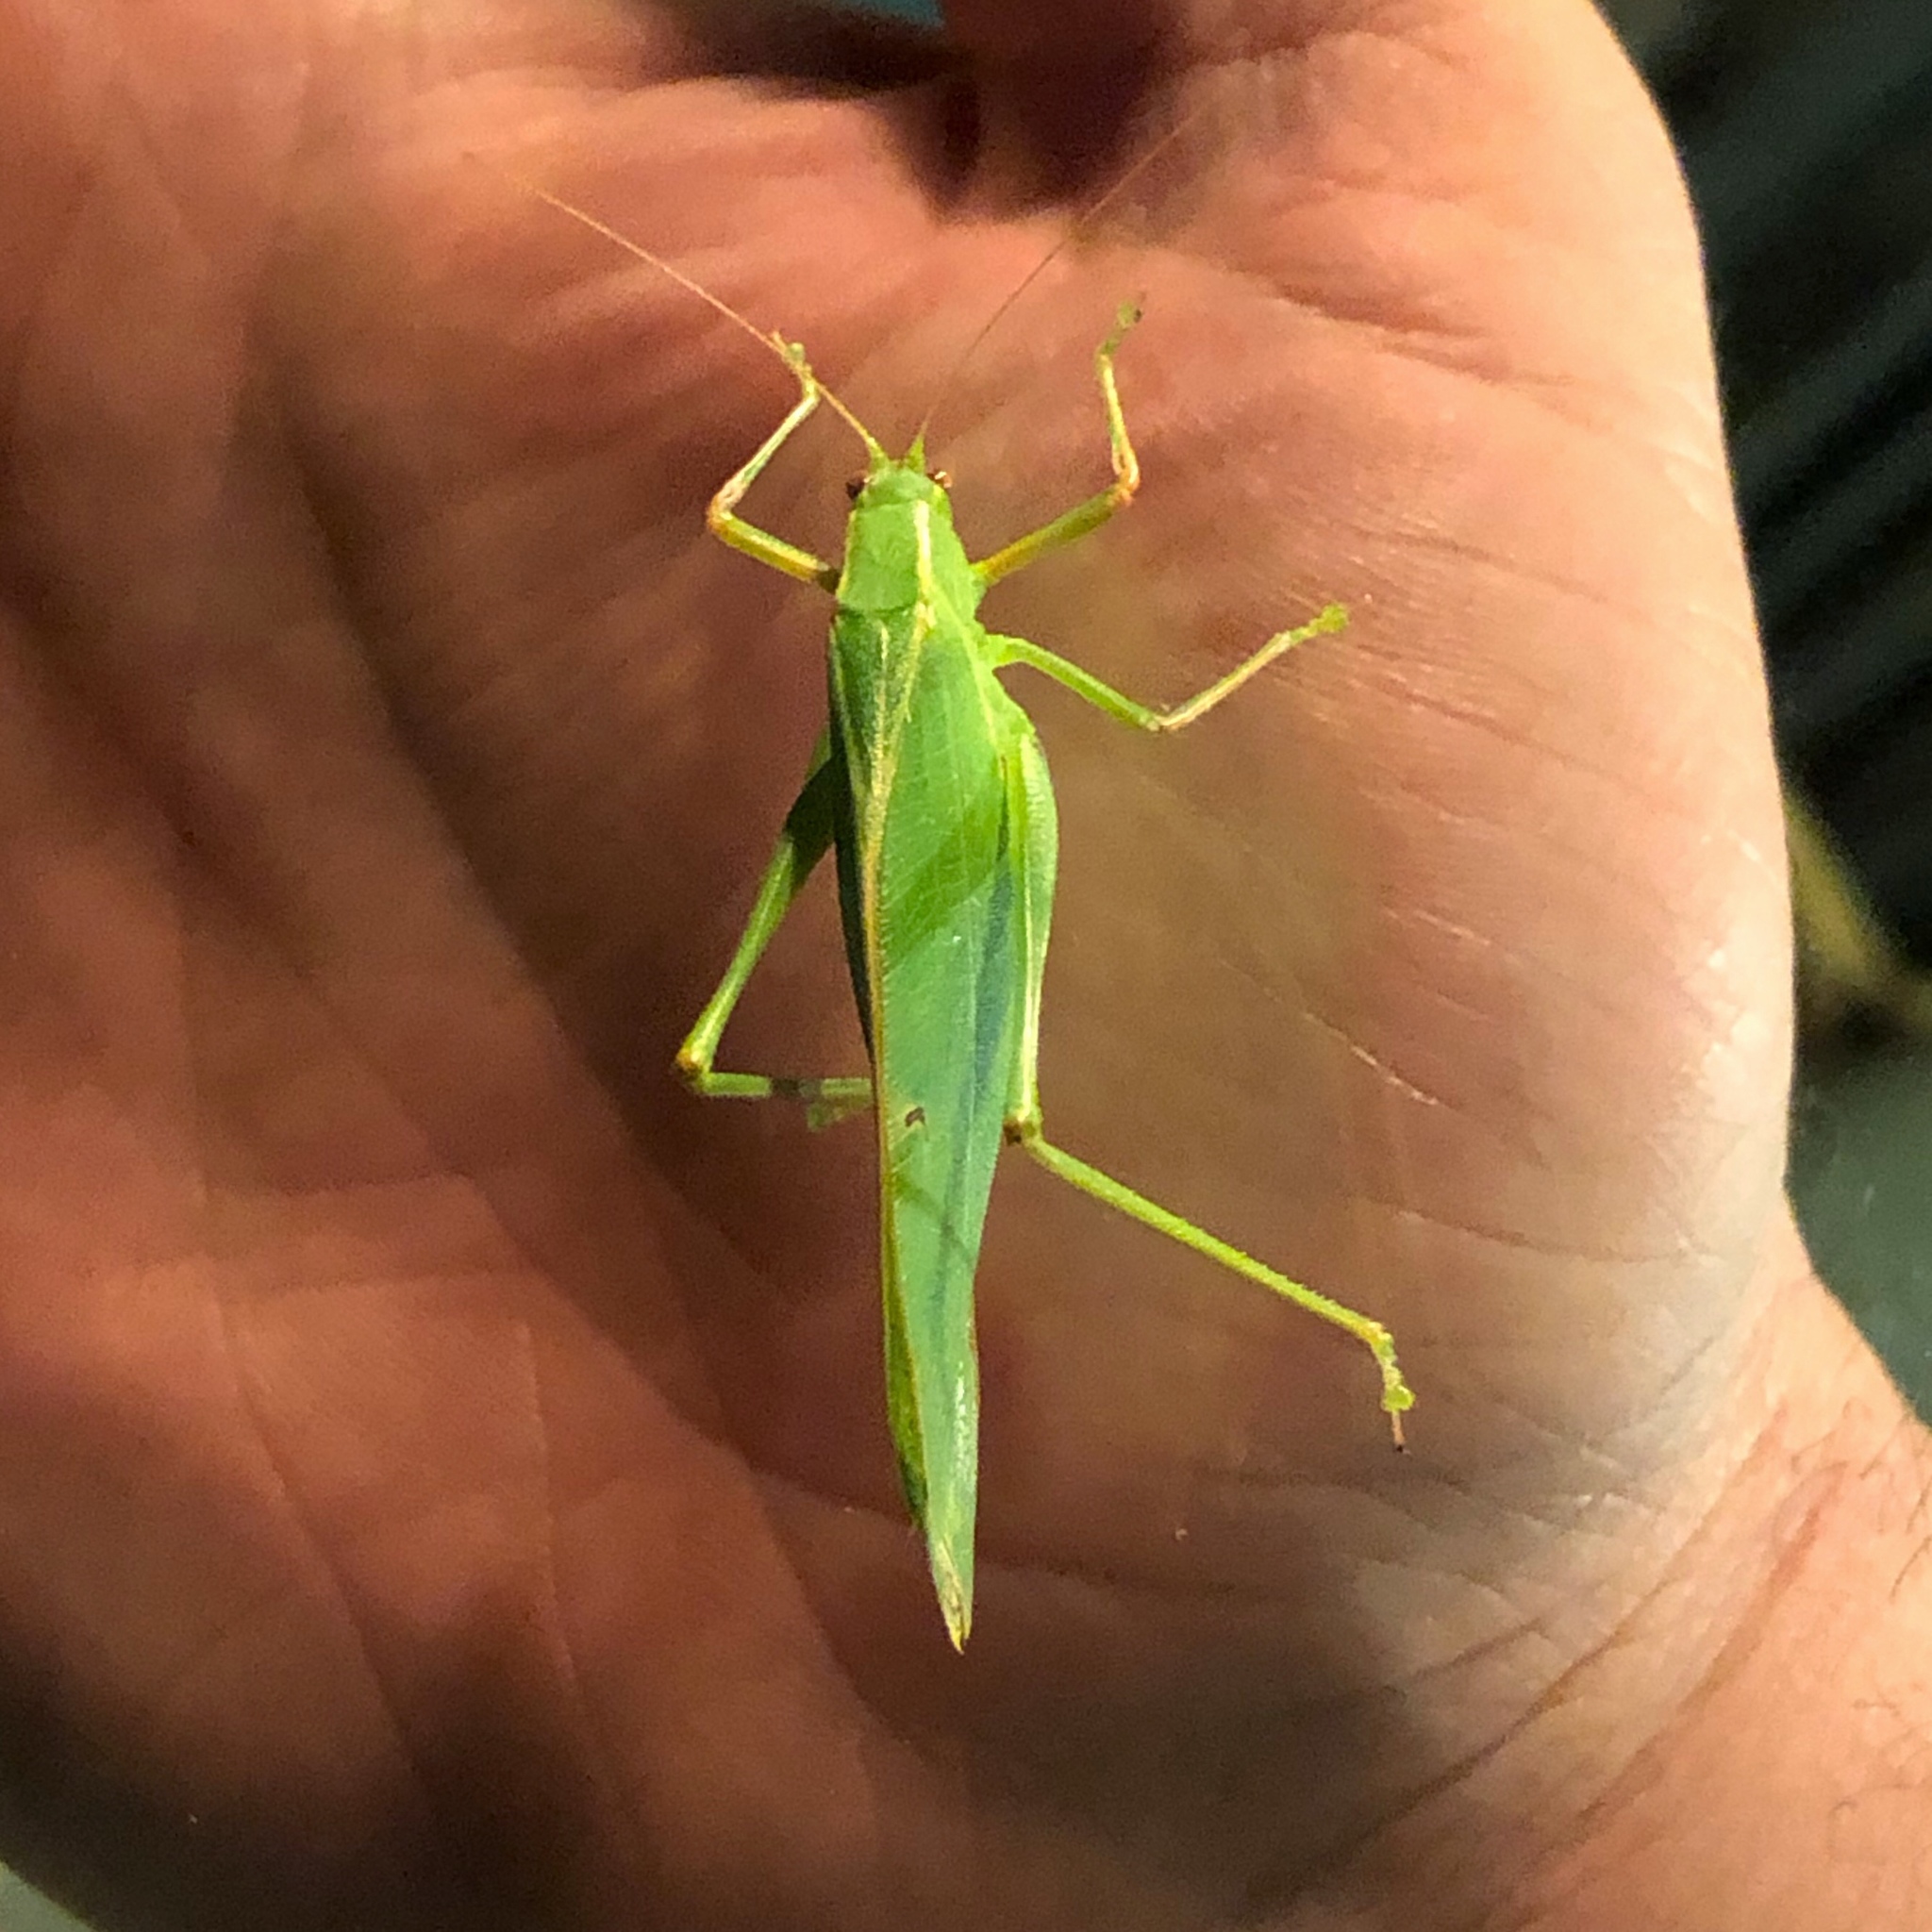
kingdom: Animalia
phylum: Arthropoda
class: Insecta
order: Orthoptera
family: Tettigoniidae
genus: Caedicia
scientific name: Caedicia simplex
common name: Common garden katydid
